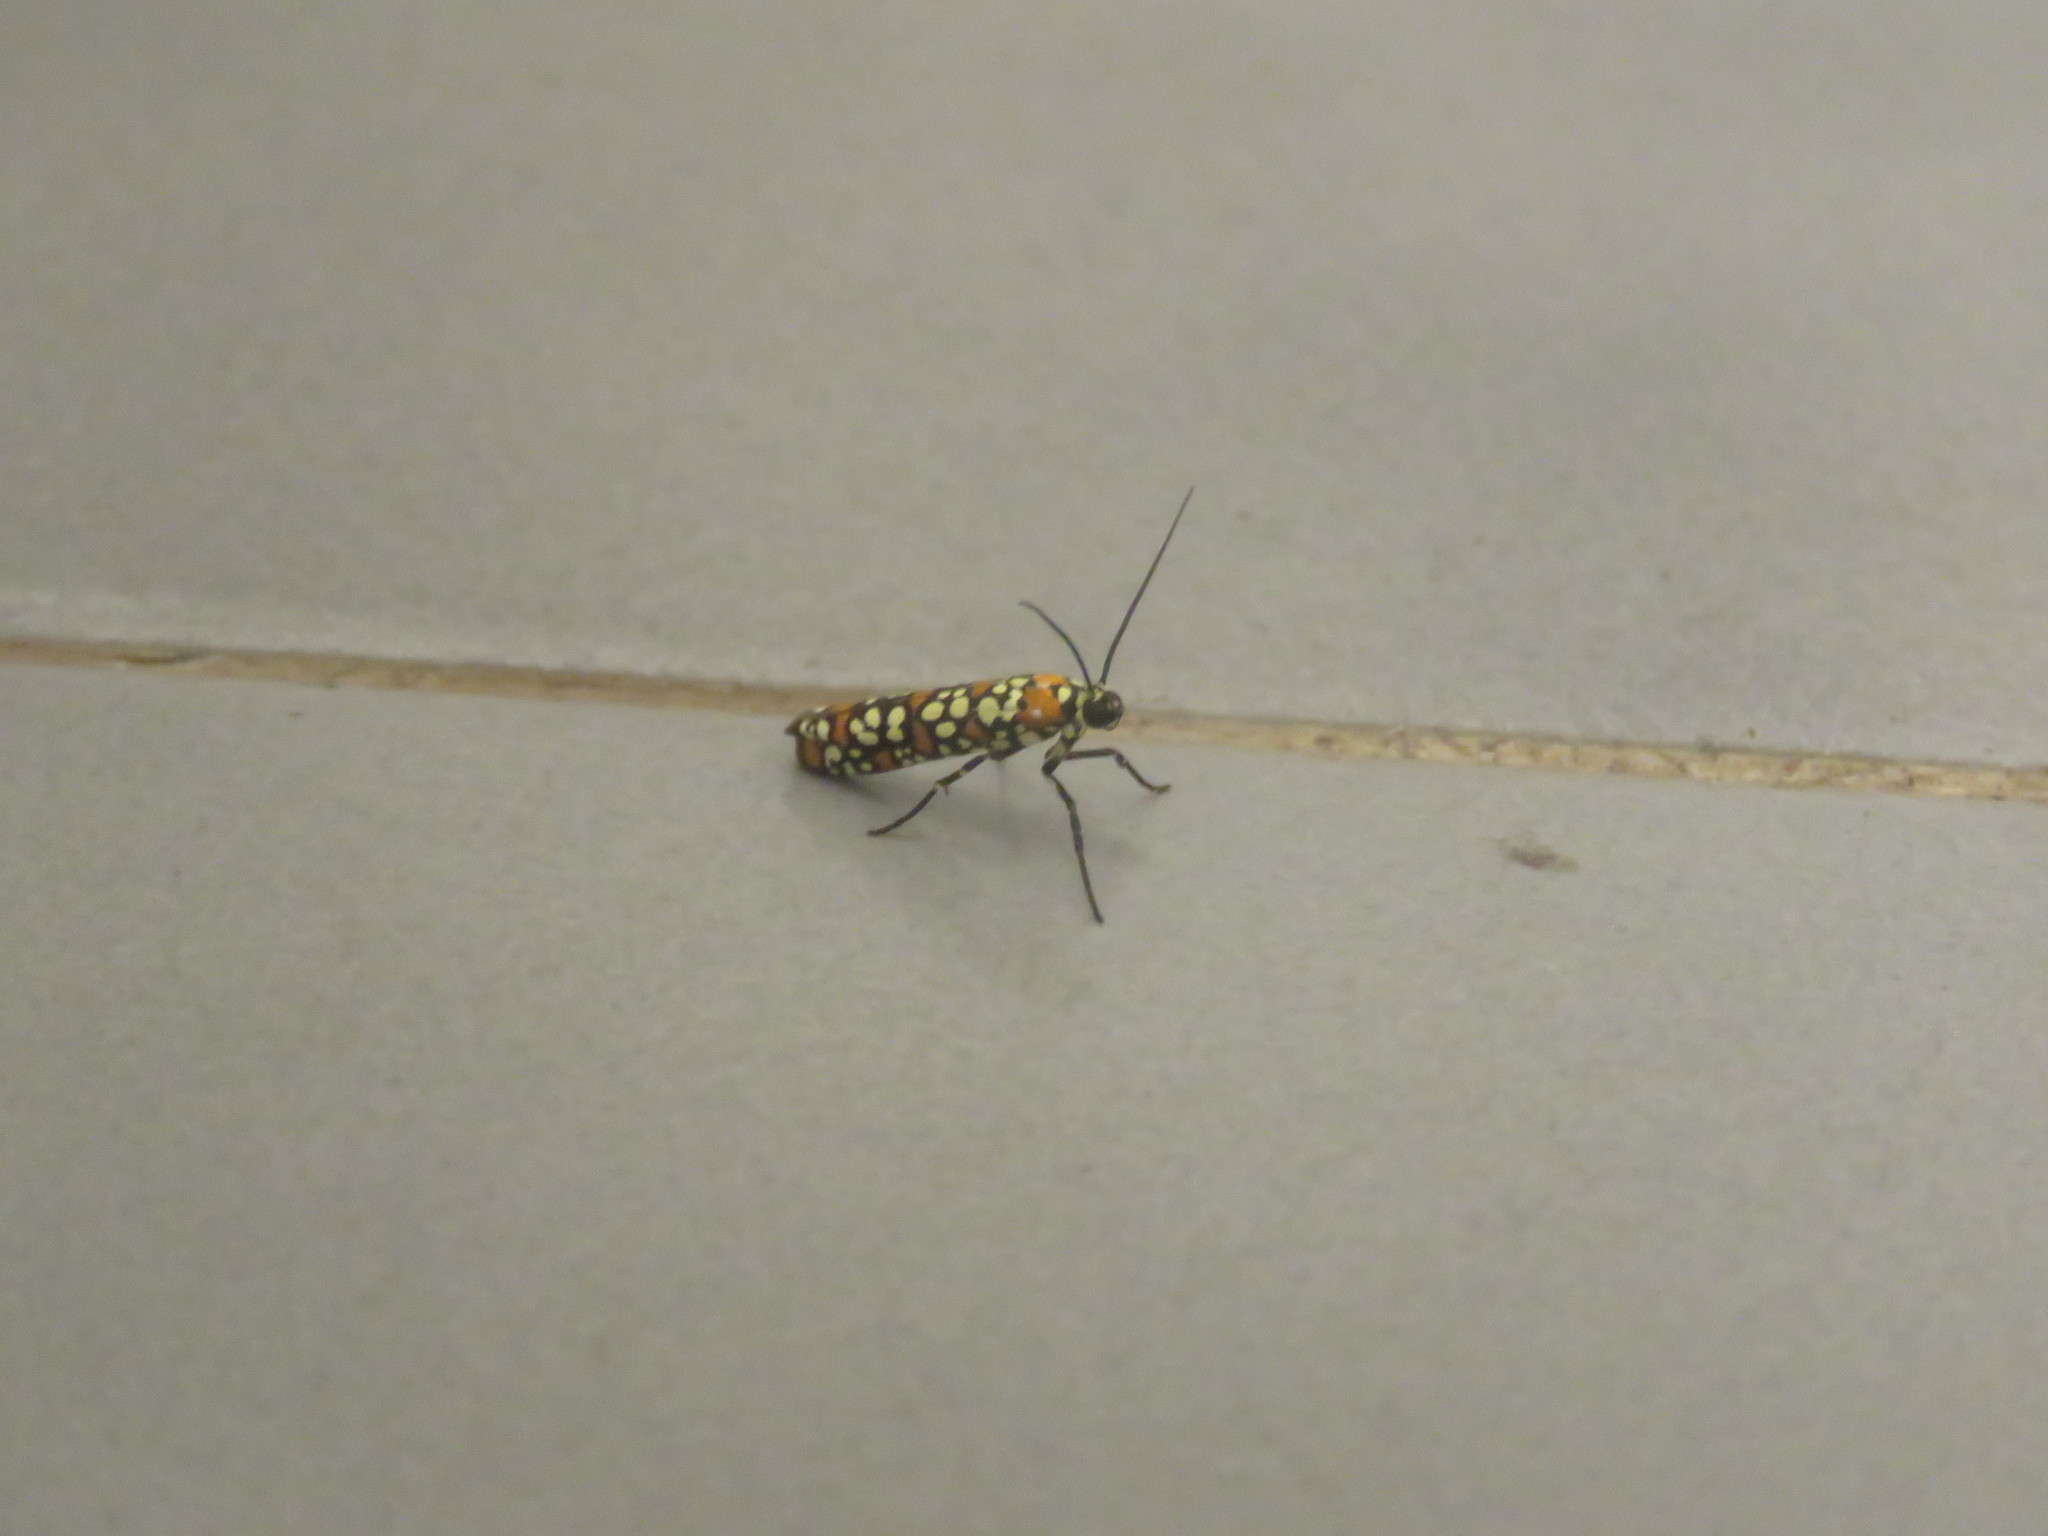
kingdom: Animalia
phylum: Arthropoda
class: Insecta
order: Lepidoptera
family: Attevidae
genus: Atteva
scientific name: Atteva punctella
